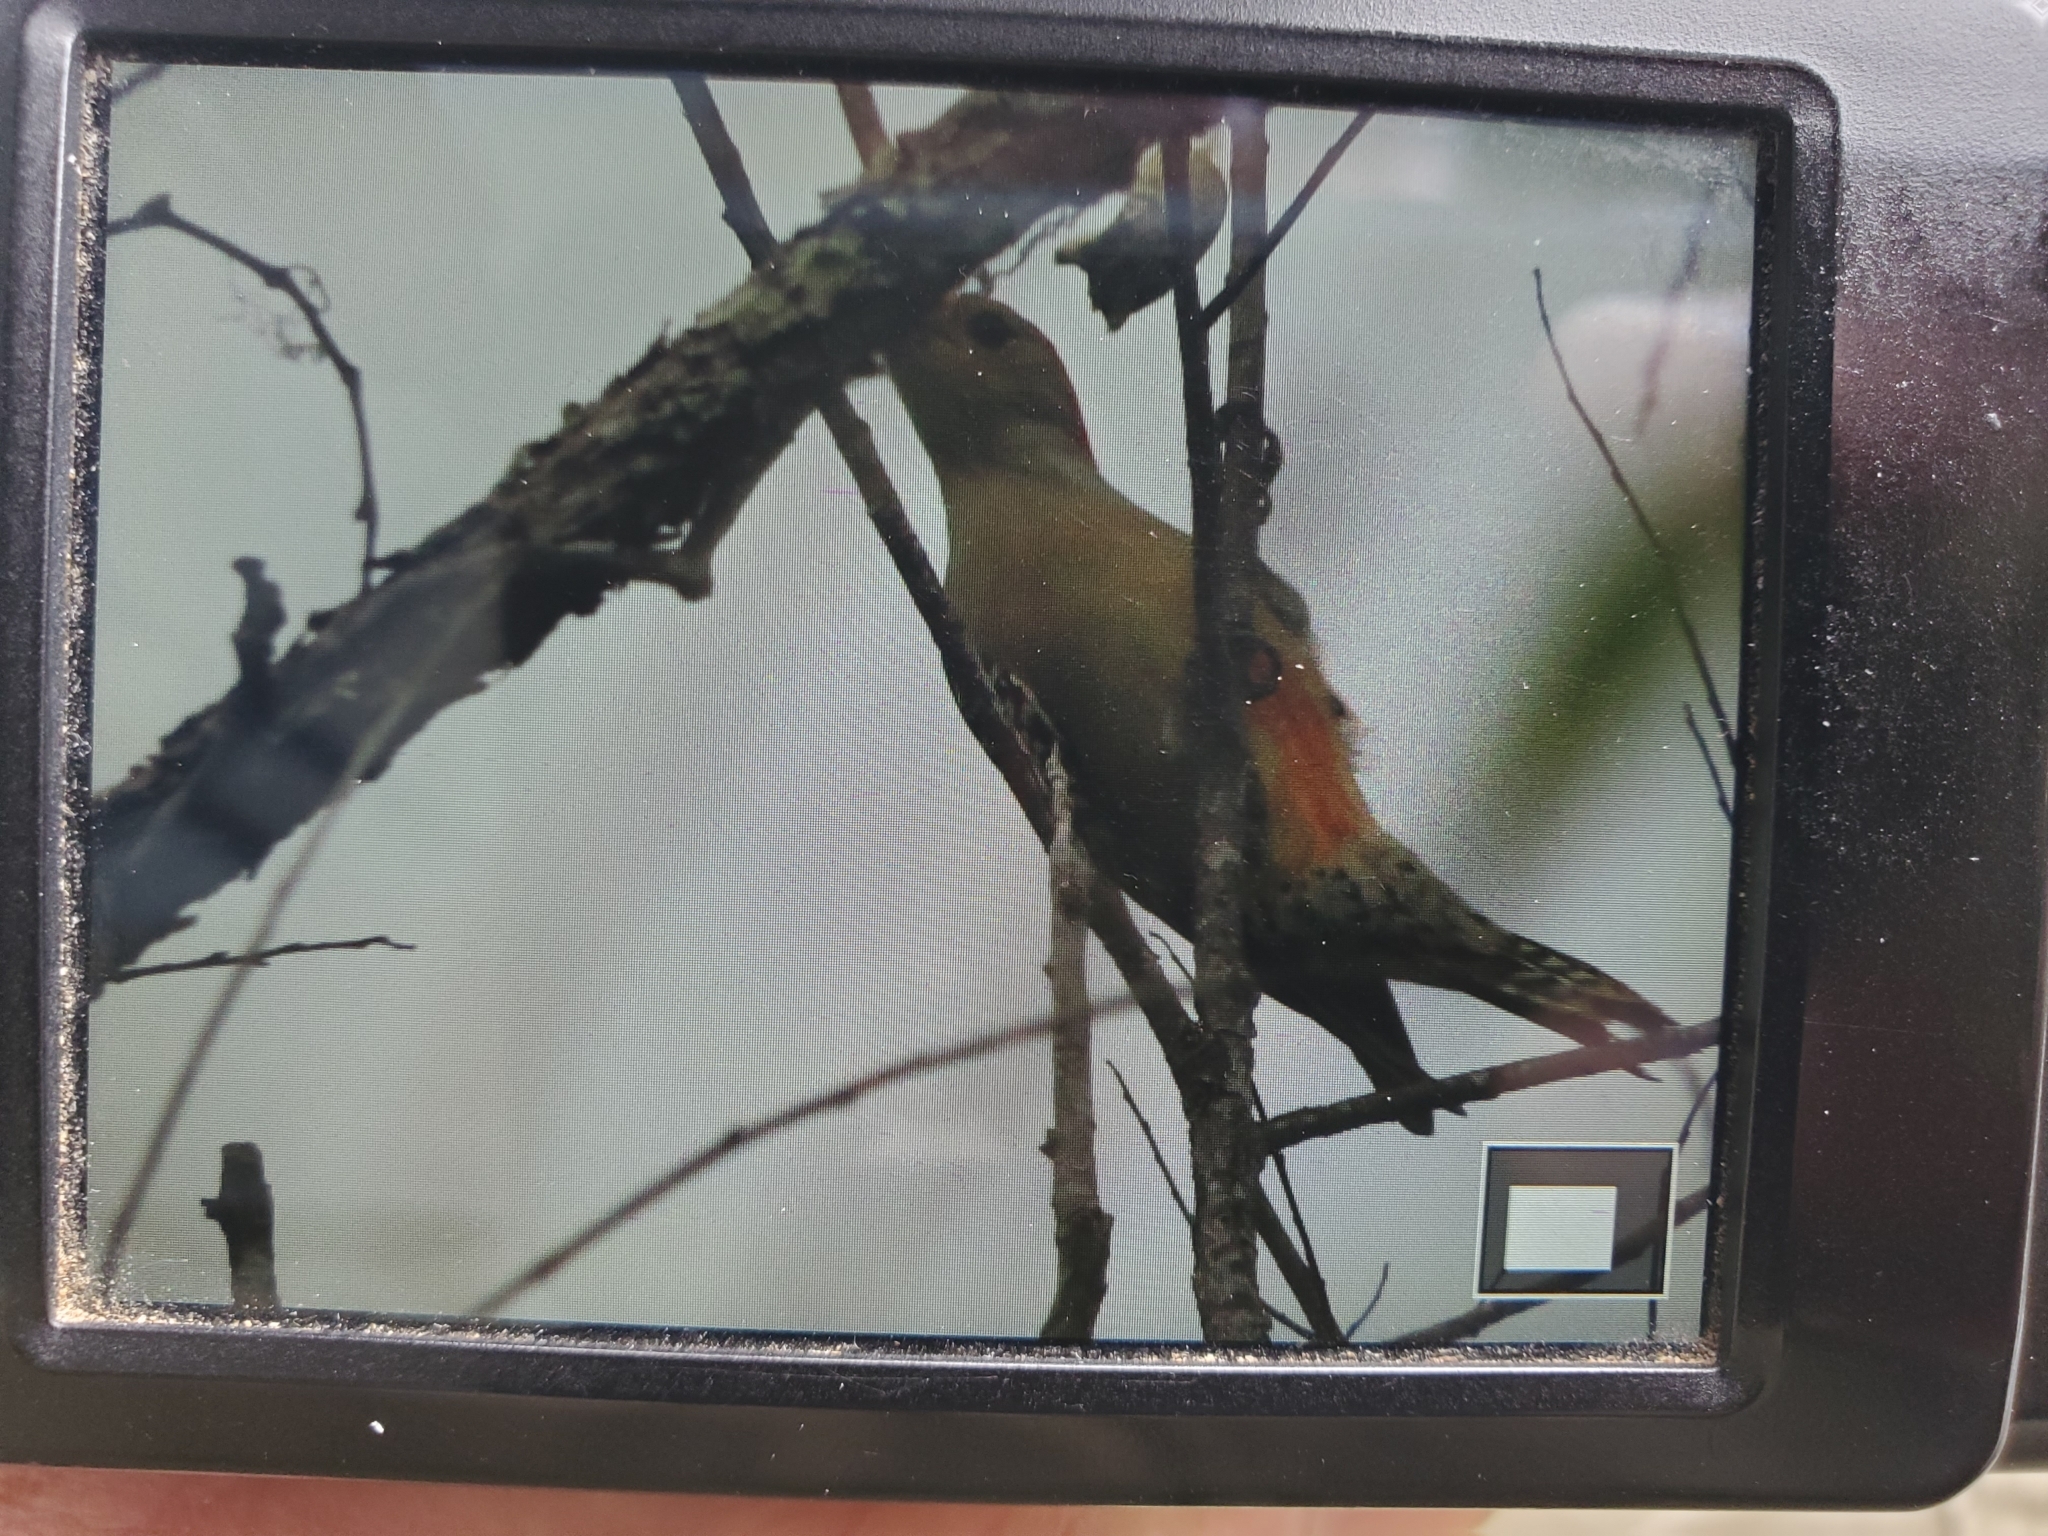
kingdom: Animalia
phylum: Chordata
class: Aves
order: Piciformes
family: Picidae
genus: Melanerpes
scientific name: Melanerpes carolinus
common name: Red-bellied woodpecker
